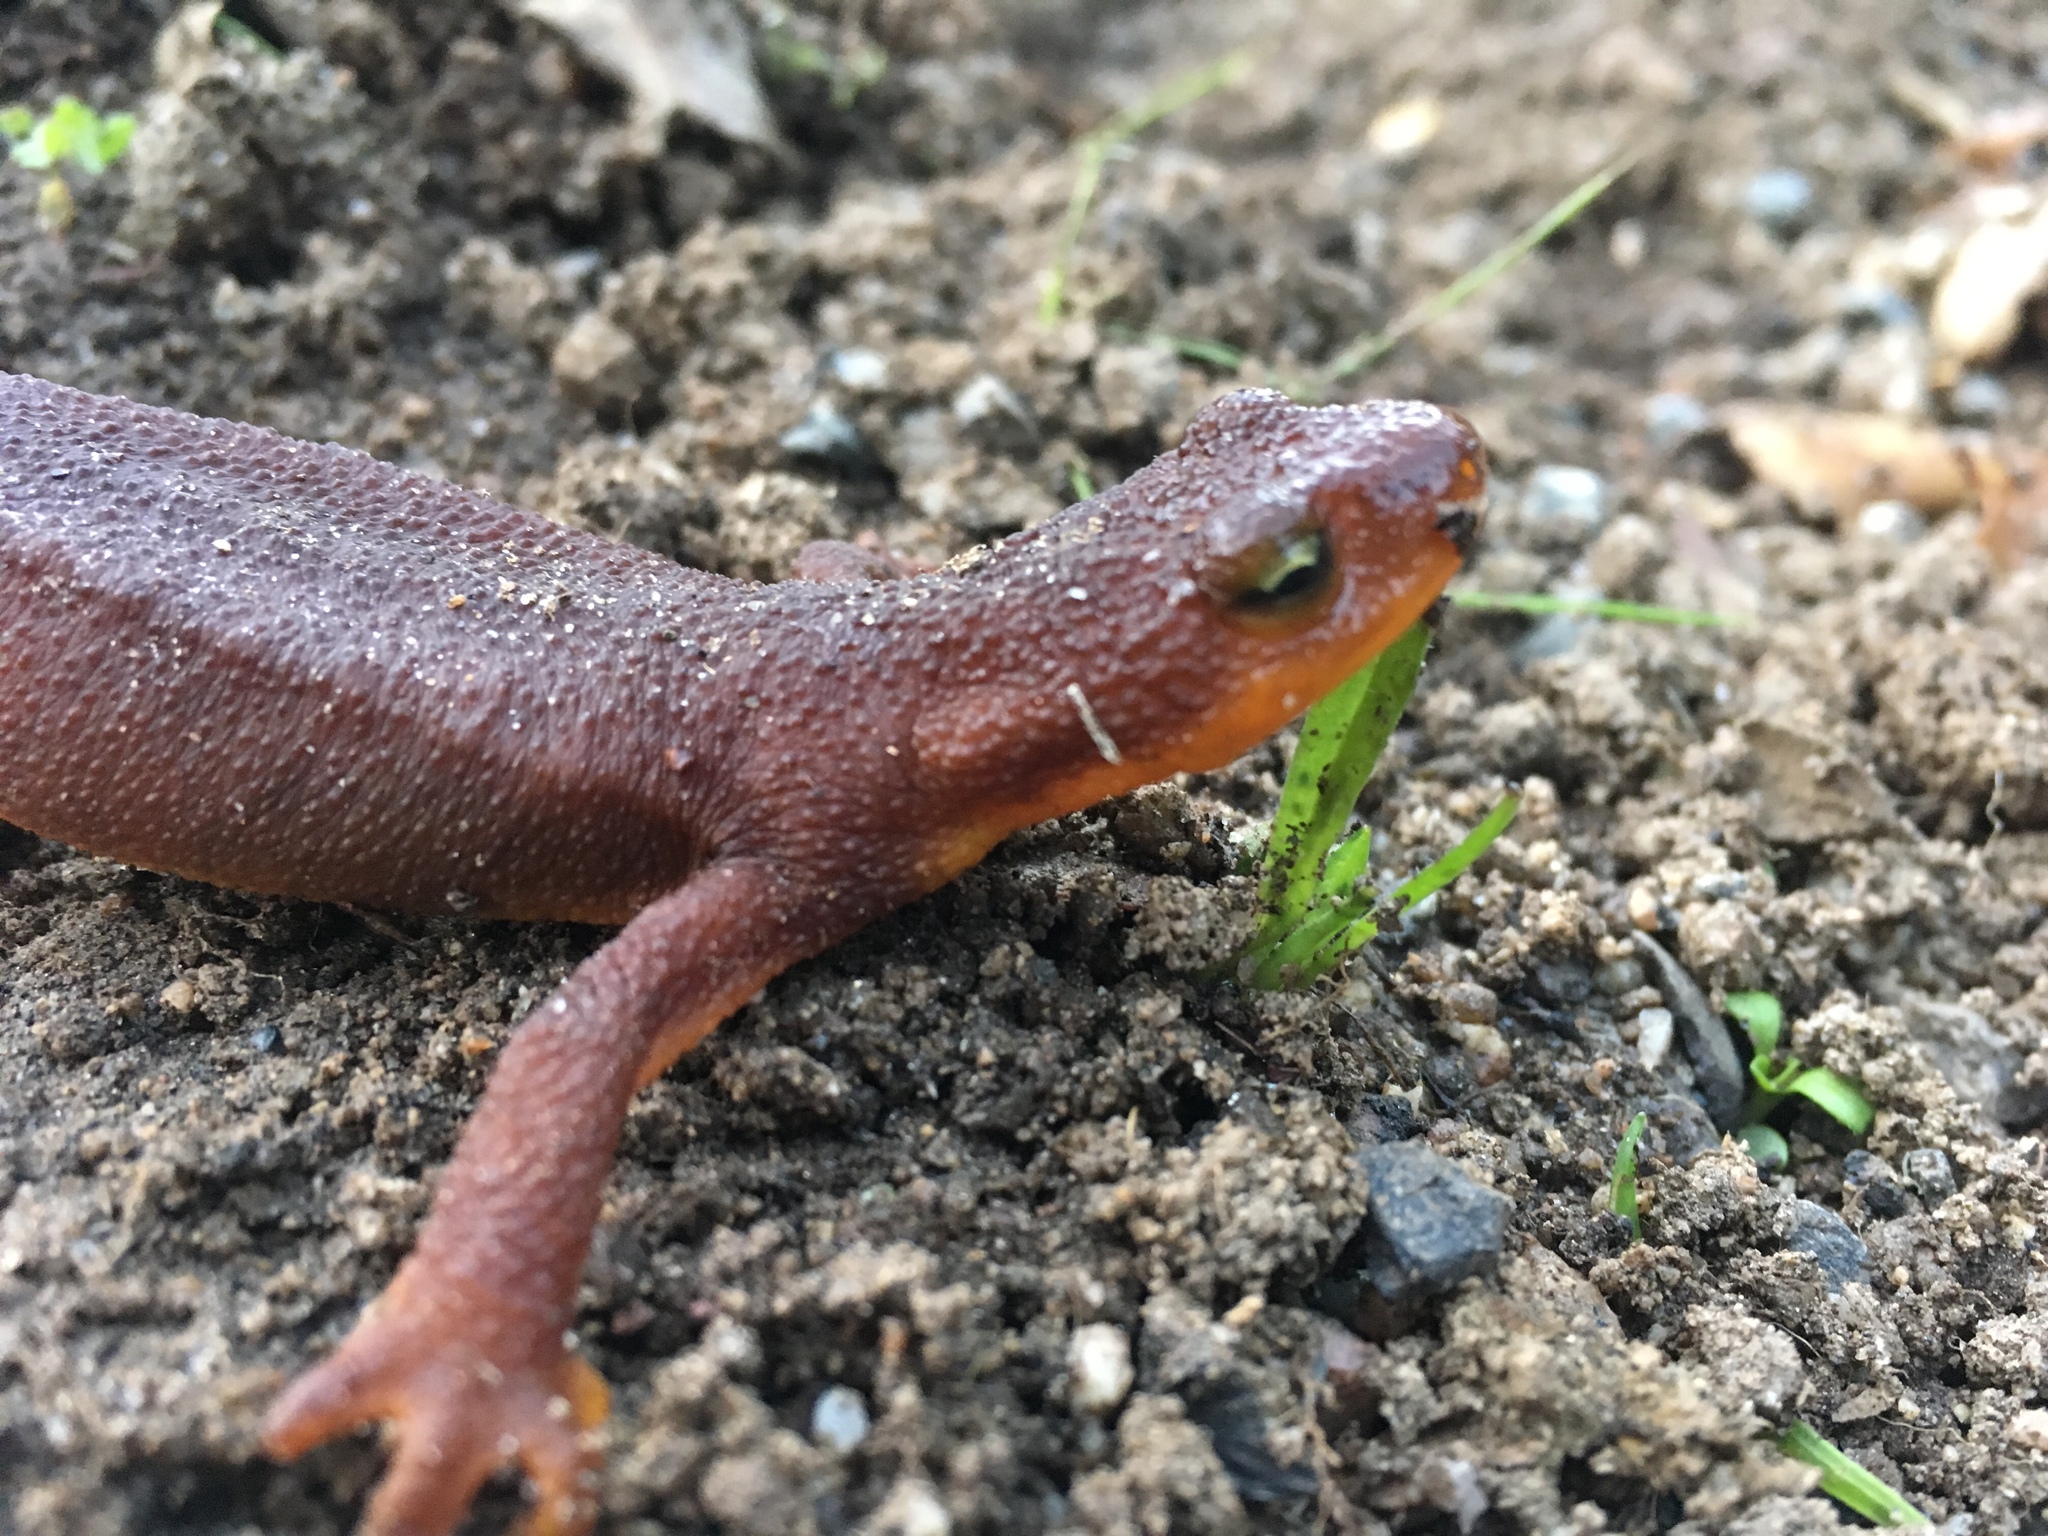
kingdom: Animalia
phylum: Chordata
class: Amphibia
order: Caudata
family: Salamandridae
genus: Taricha
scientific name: Taricha torosa
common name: California newt
